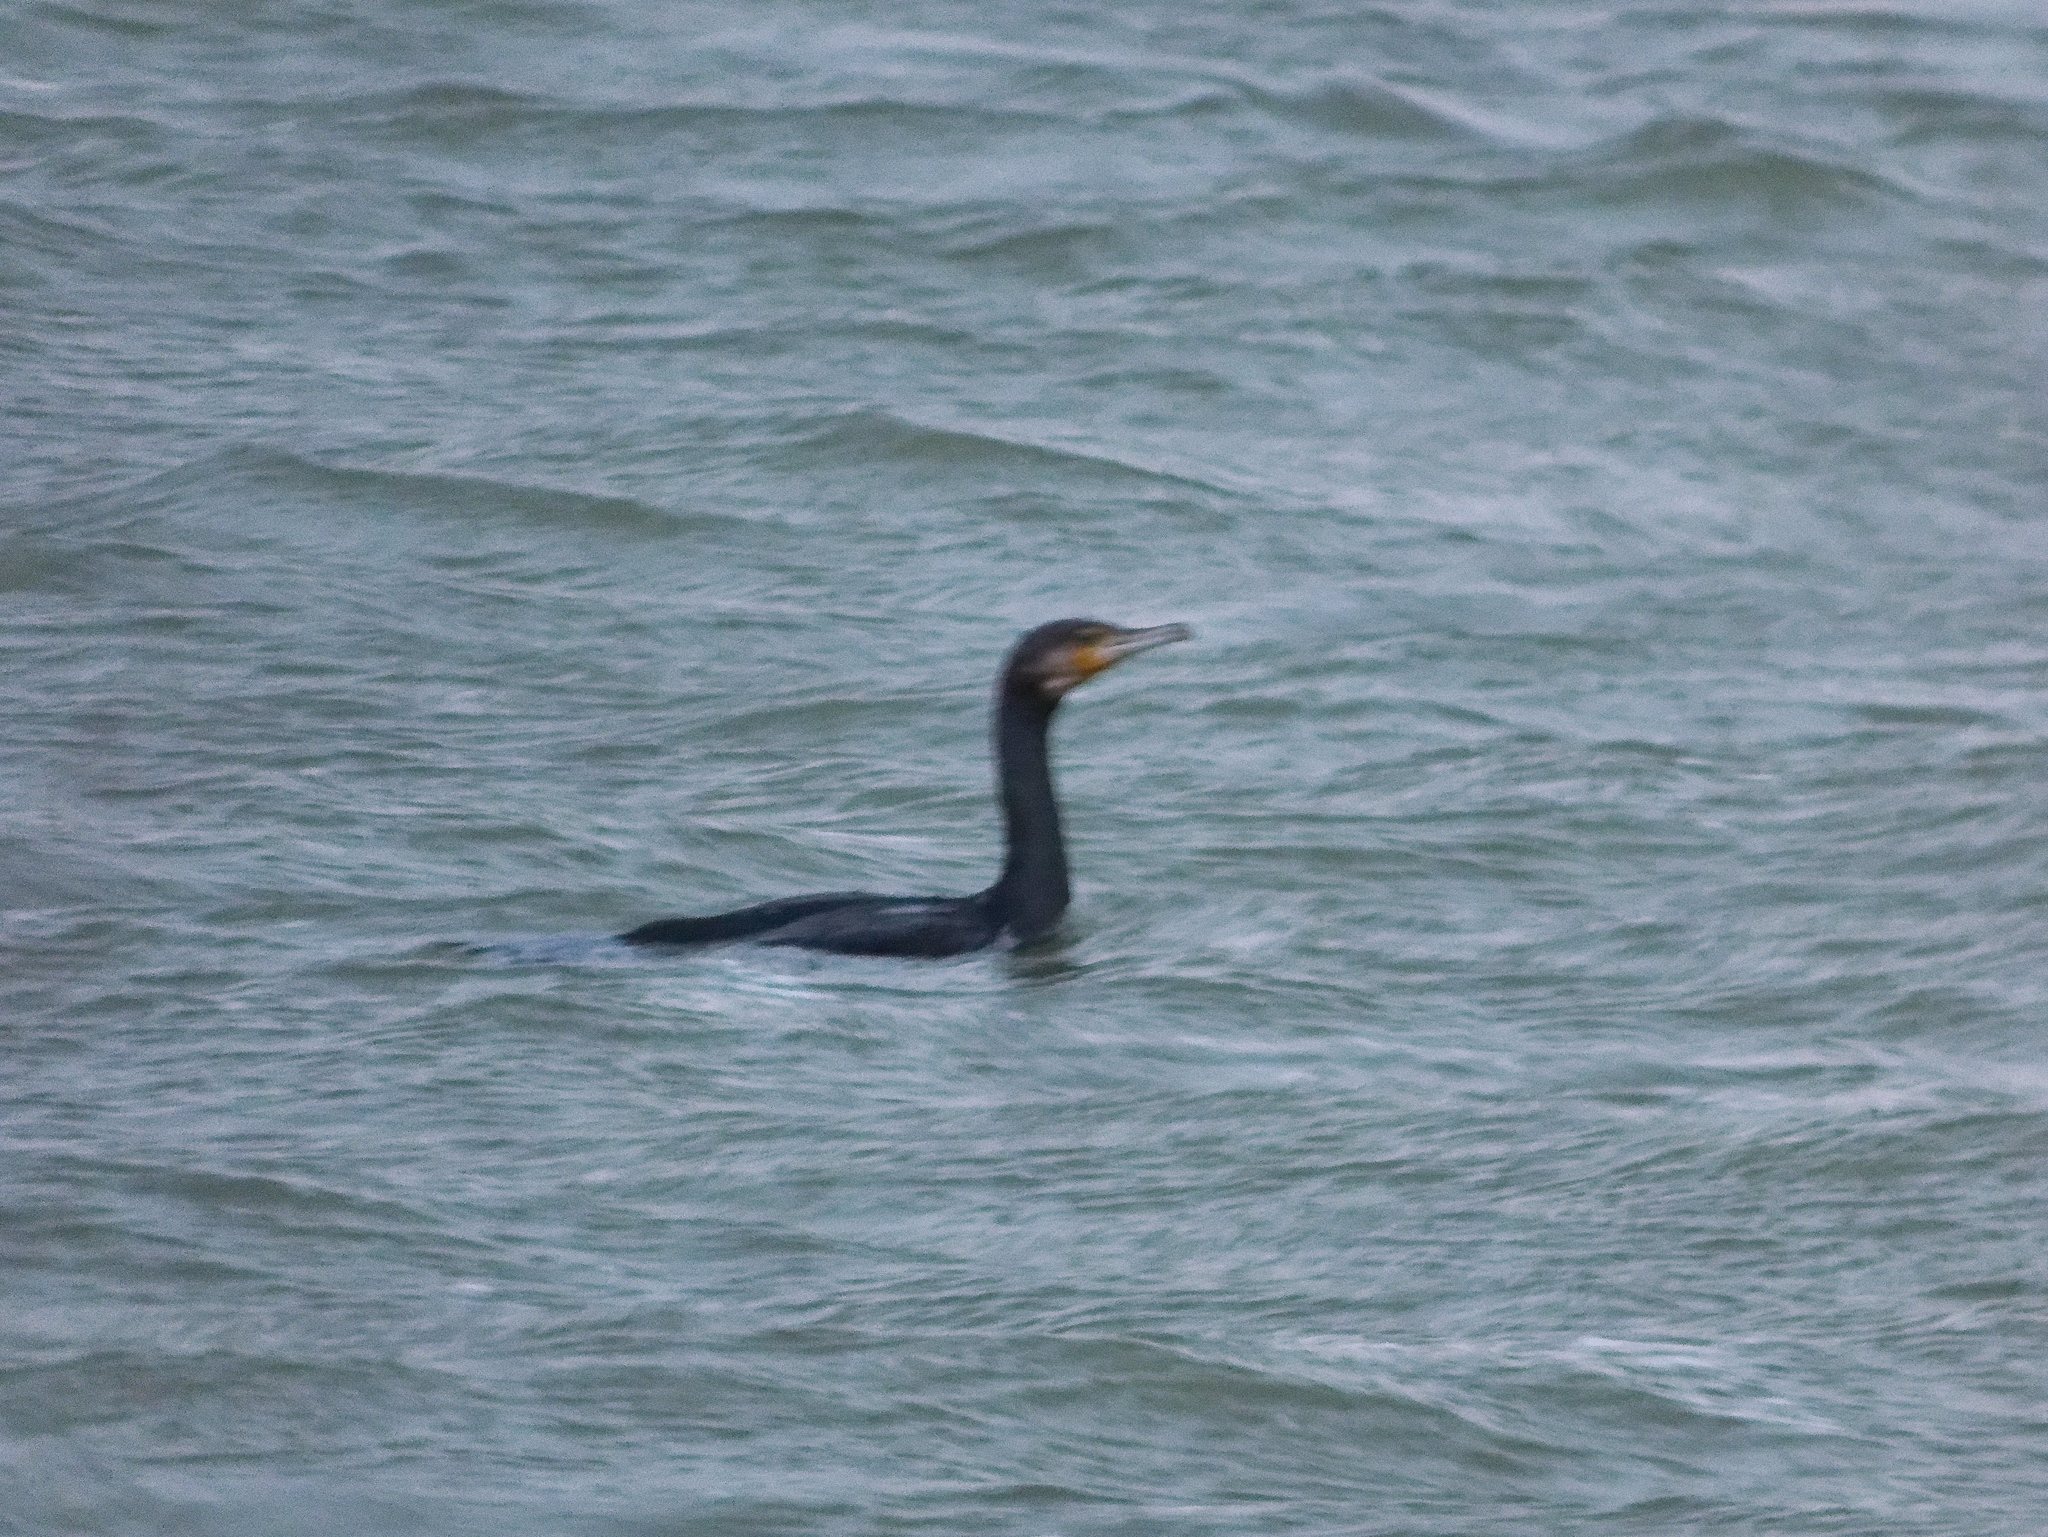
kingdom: Animalia
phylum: Chordata
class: Aves
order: Suliformes
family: Phalacrocoracidae
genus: Phalacrocorax
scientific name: Phalacrocorax carbo
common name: Great cormorant
